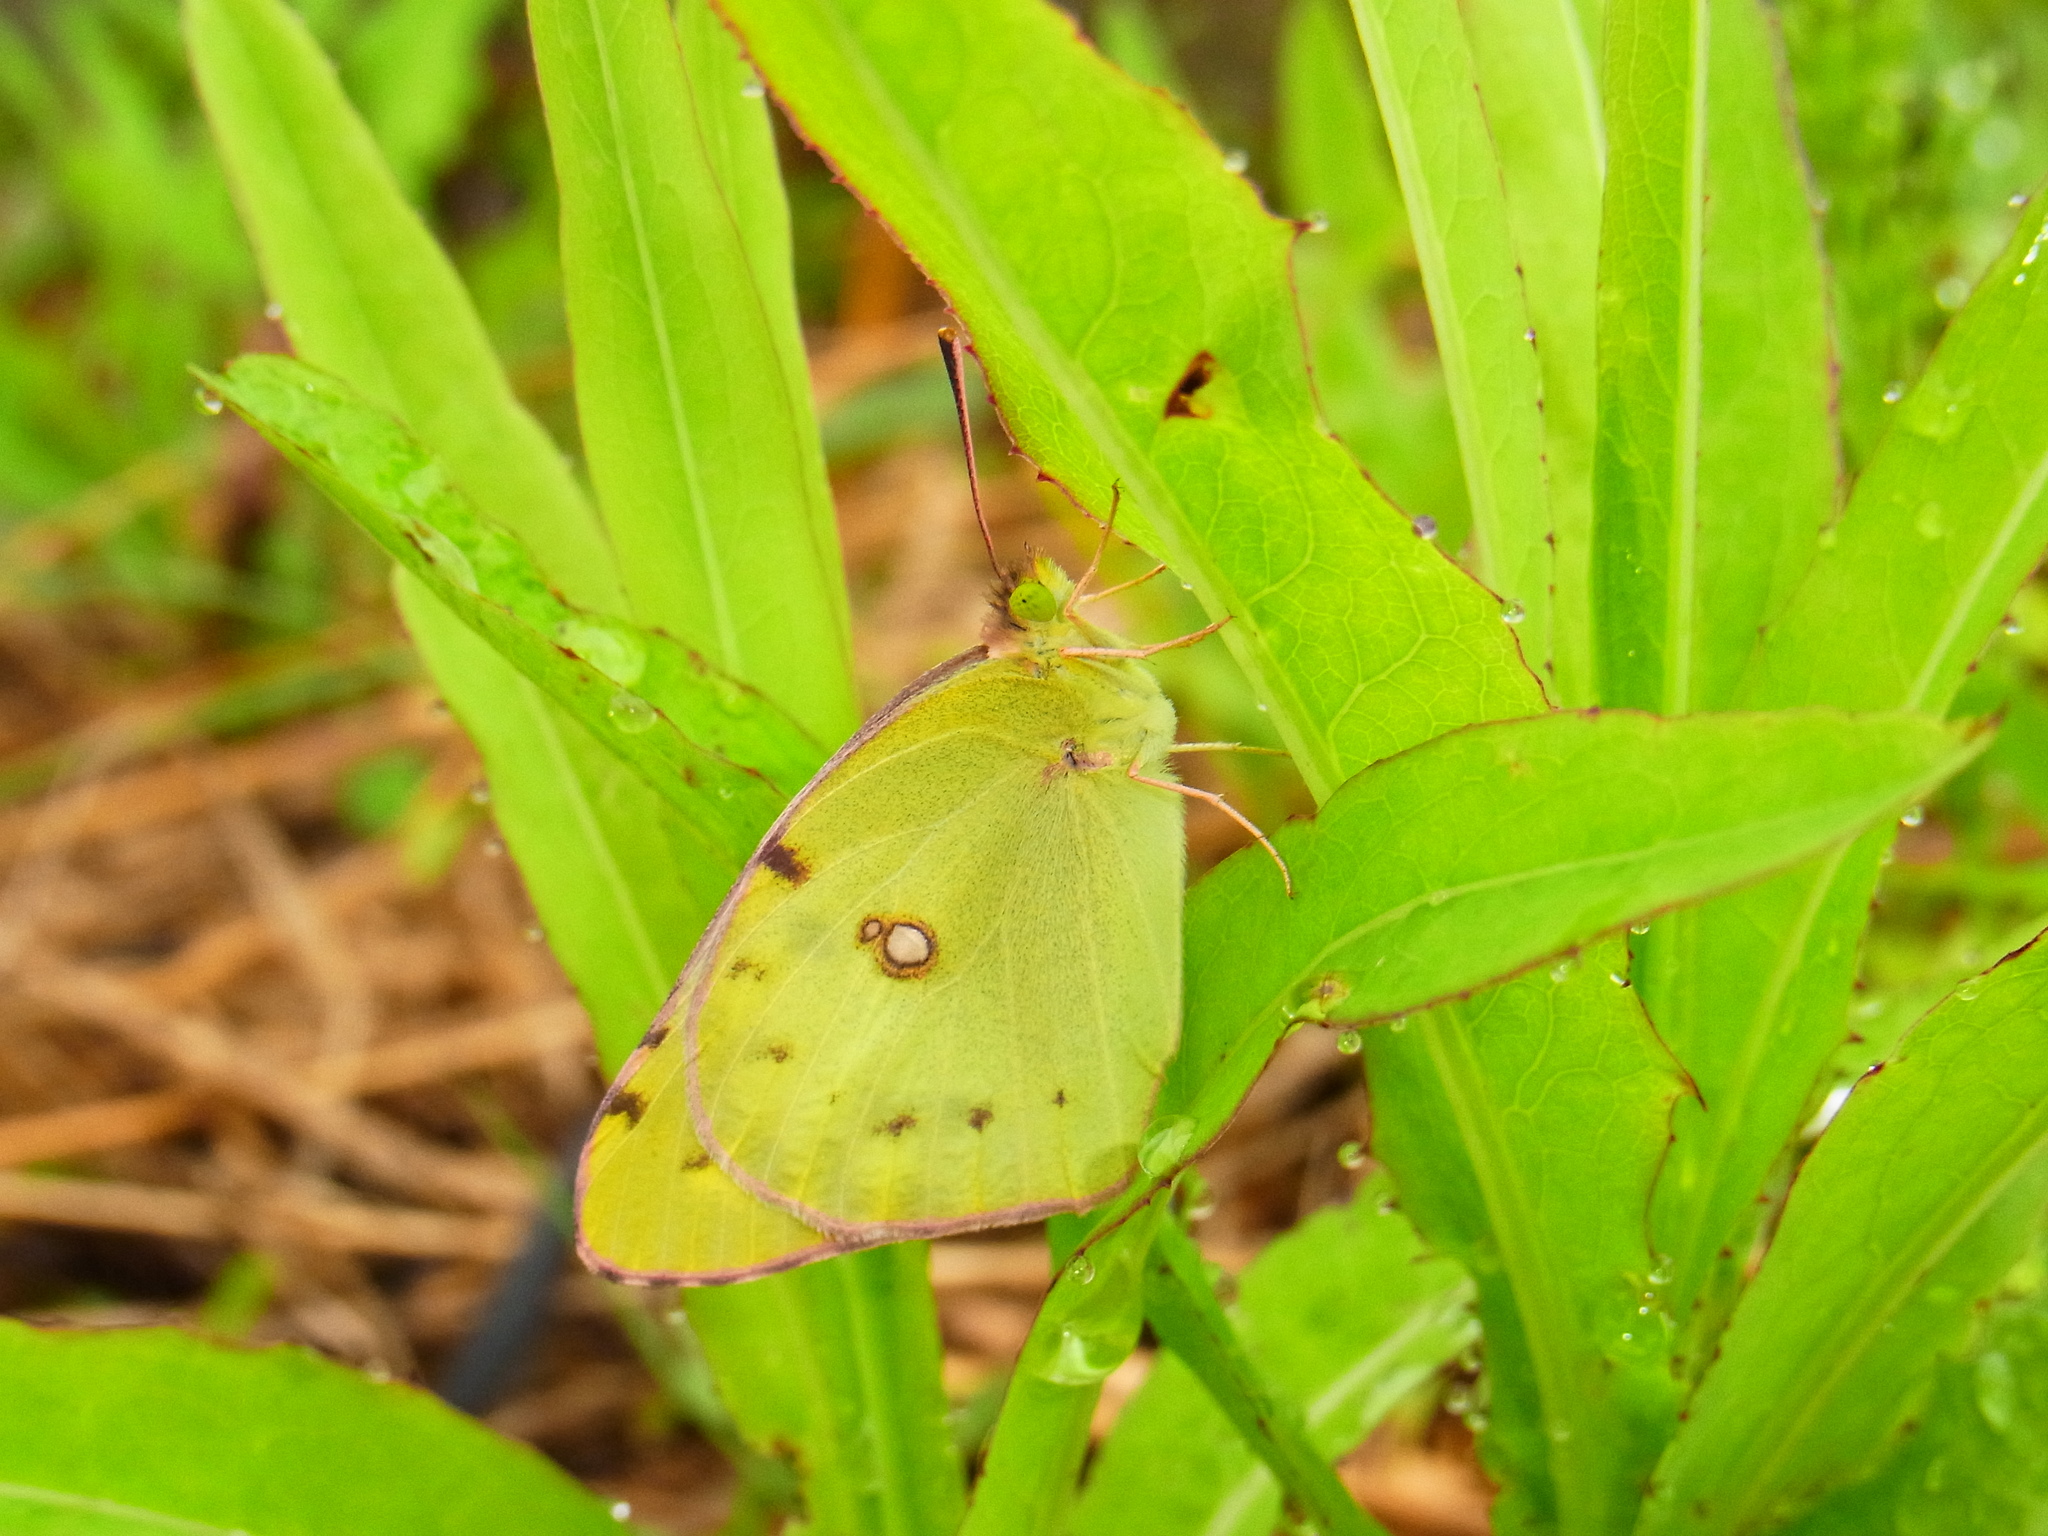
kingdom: Animalia
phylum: Arthropoda
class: Insecta
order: Lepidoptera
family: Pieridae
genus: Colias
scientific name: Colias poliographus
